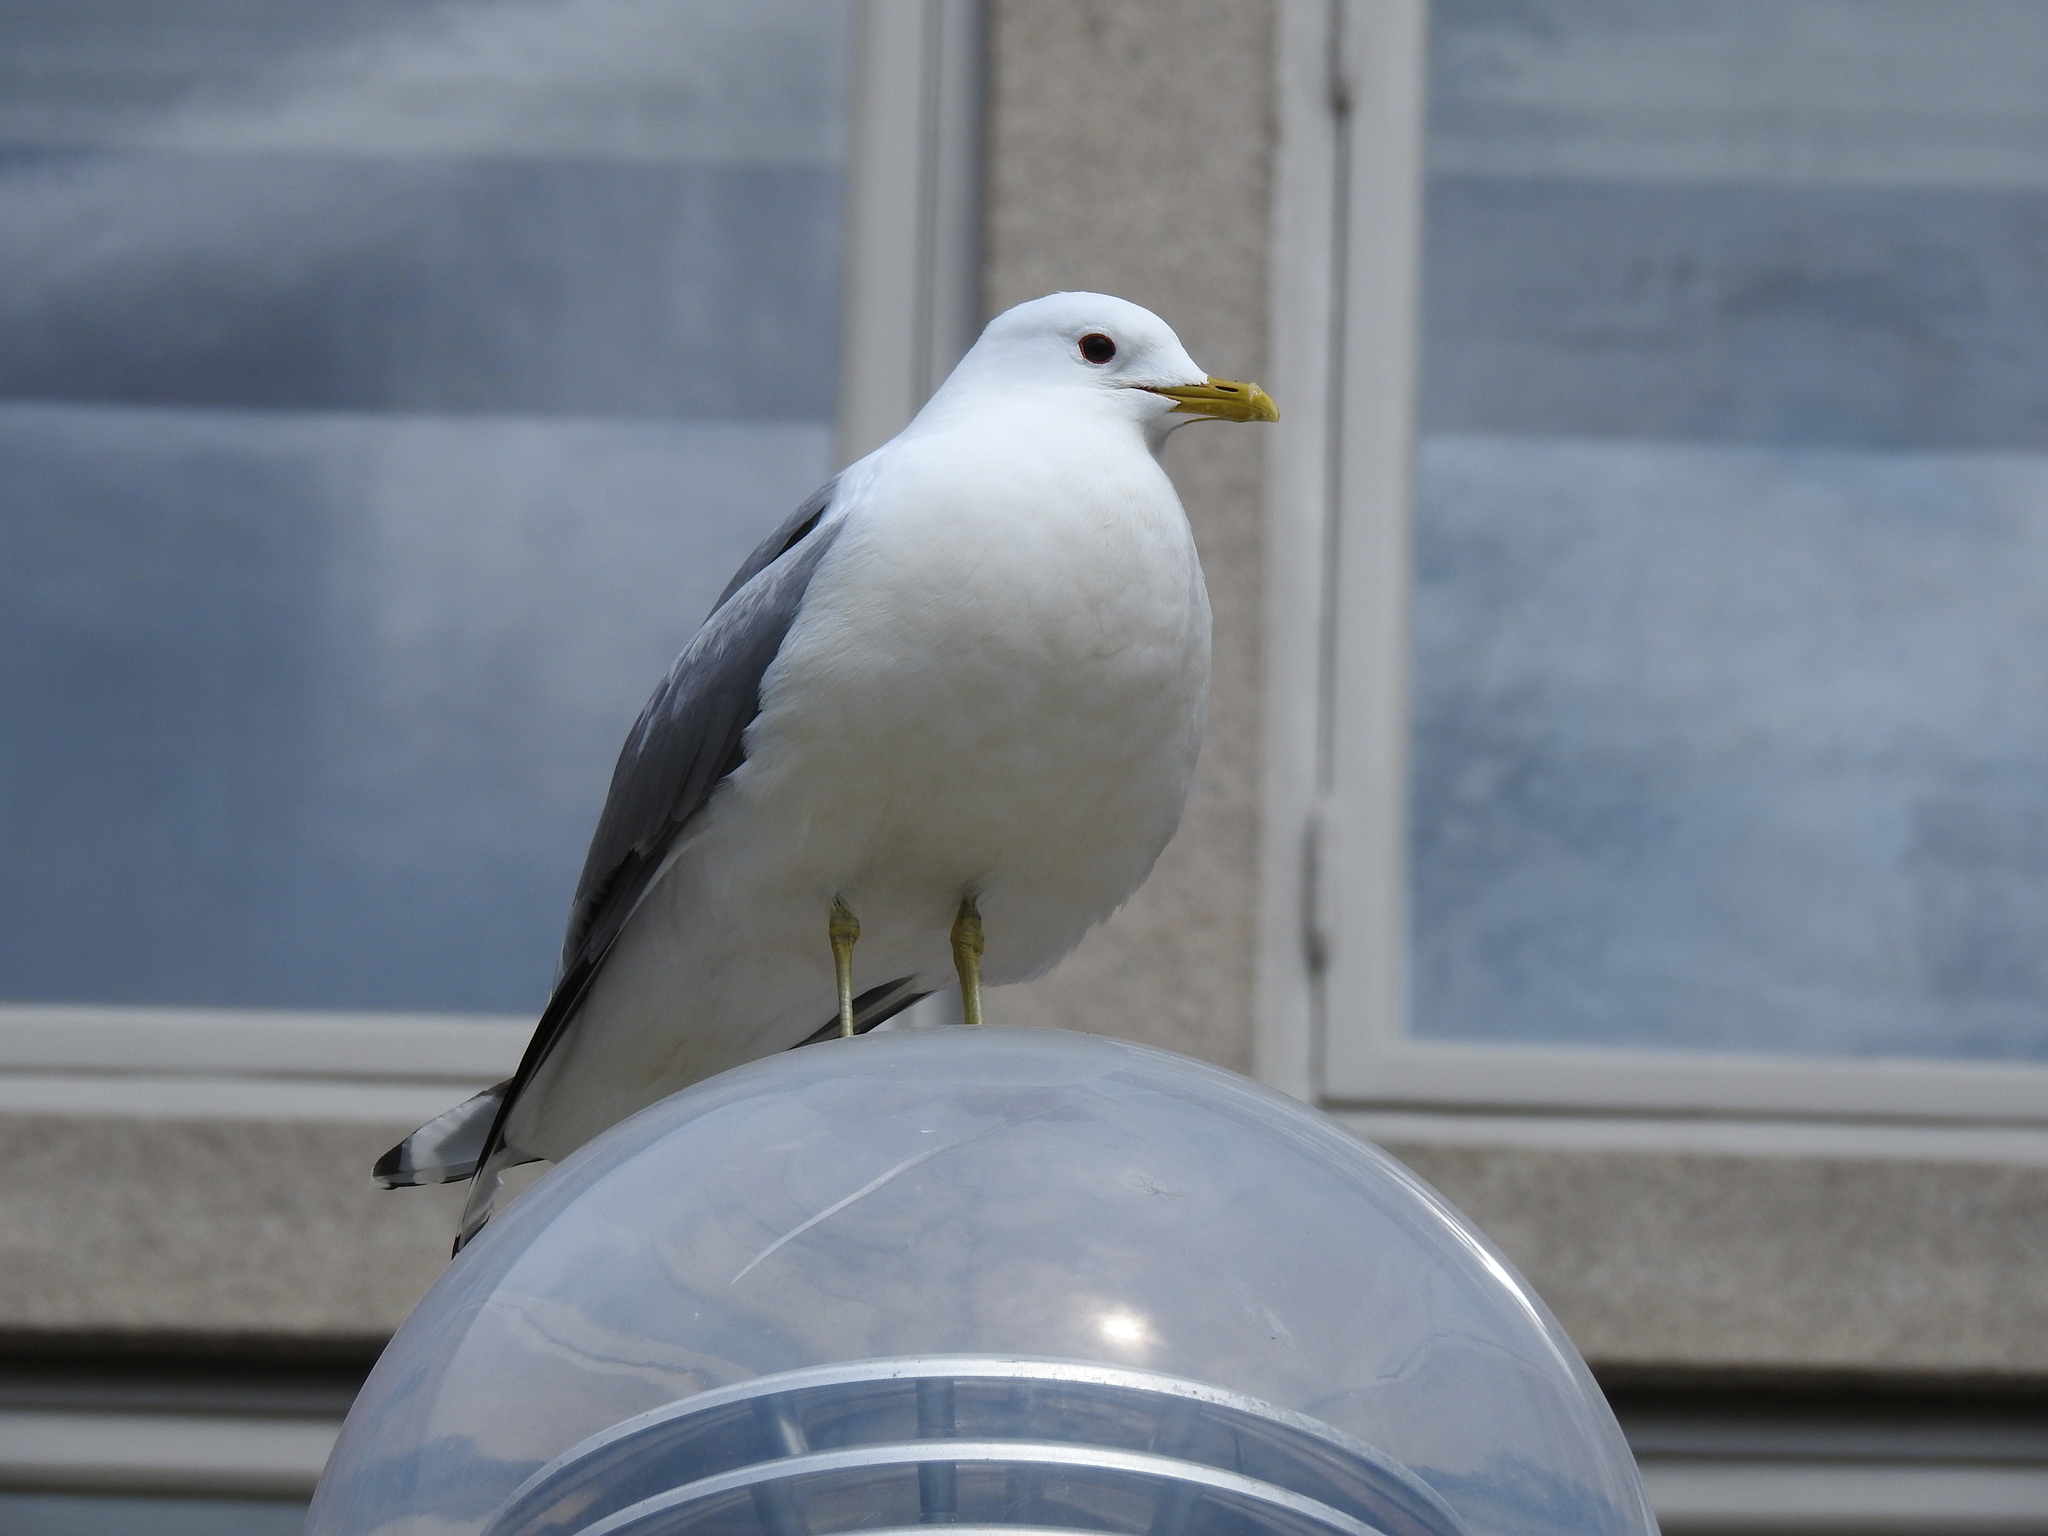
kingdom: Animalia
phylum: Chordata
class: Aves
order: Charadriiformes
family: Laridae
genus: Larus
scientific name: Larus canus
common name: Mew gull
